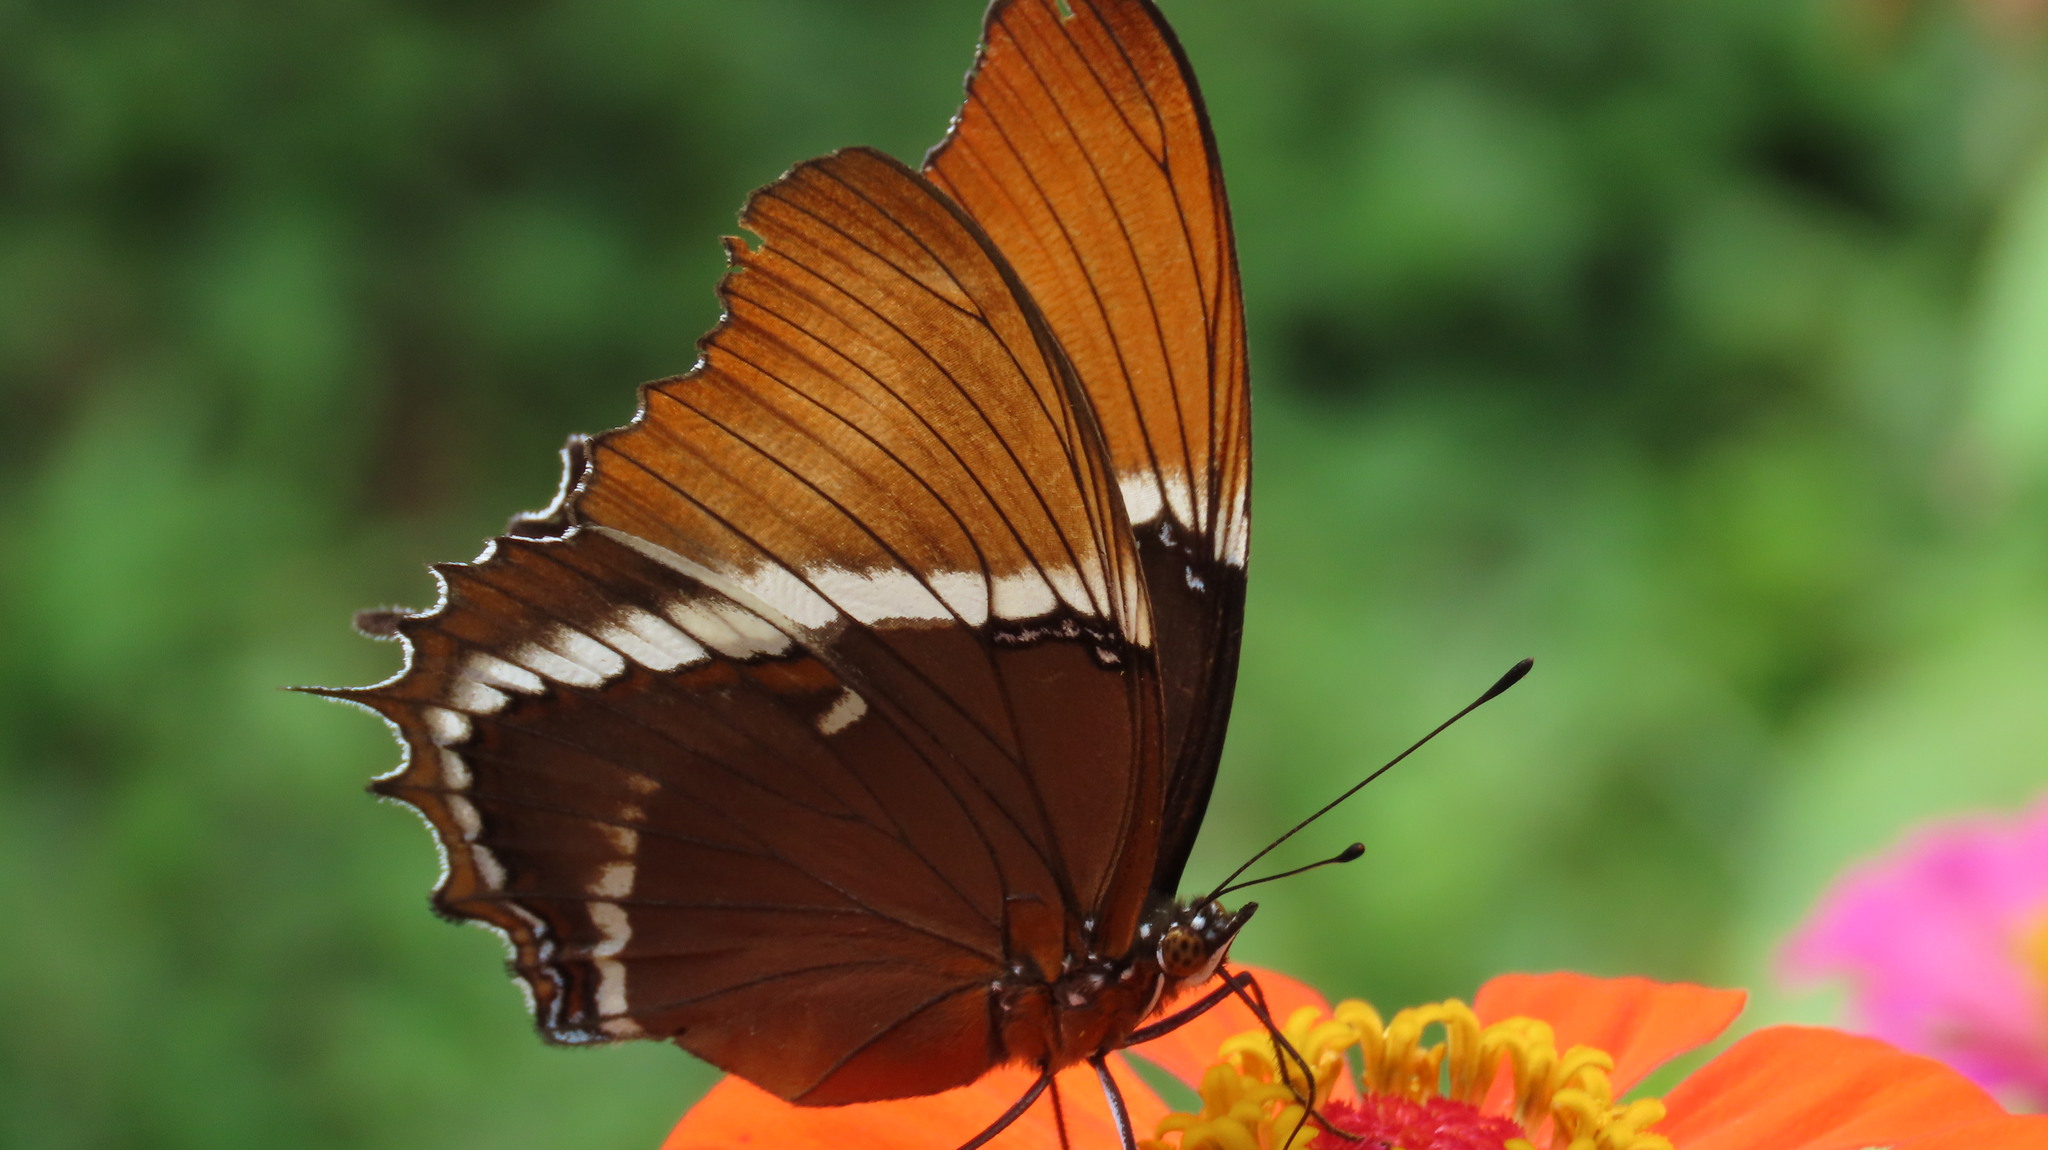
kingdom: Animalia
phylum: Arthropoda
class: Insecta
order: Lepidoptera
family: Nymphalidae
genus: Siproeta
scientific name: Siproeta epaphus
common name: Rusty-tipped page
